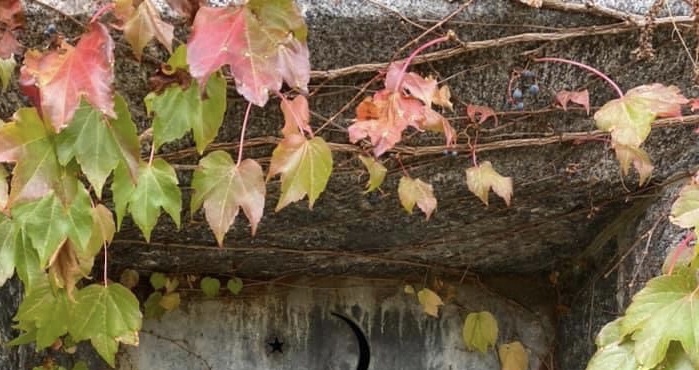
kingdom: Plantae
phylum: Tracheophyta
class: Magnoliopsida
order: Vitales
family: Vitaceae
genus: Parthenocissus
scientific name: Parthenocissus tricuspidata
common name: Boston ivy
